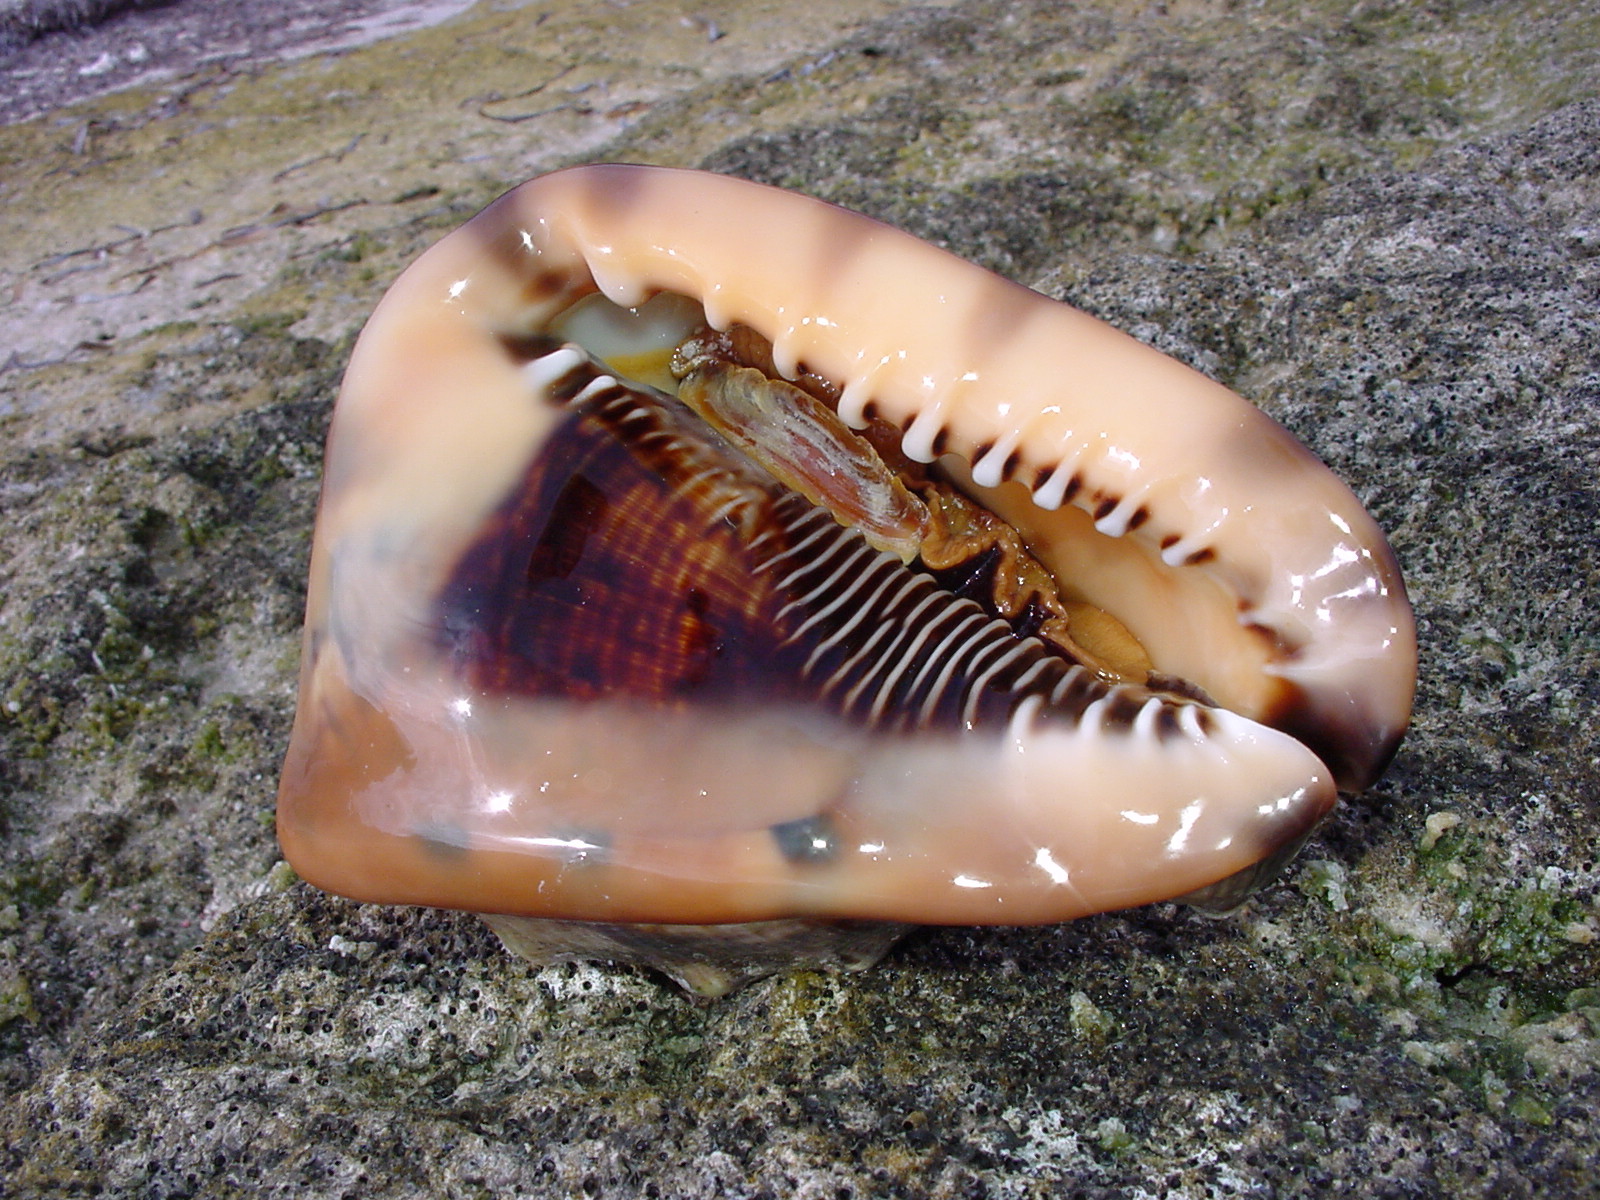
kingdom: Animalia
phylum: Mollusca
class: Gastropoda
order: Littorinimorpha
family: Cassidae
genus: Cassis
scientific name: Cassis tuberosa
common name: Caribbean helmet
